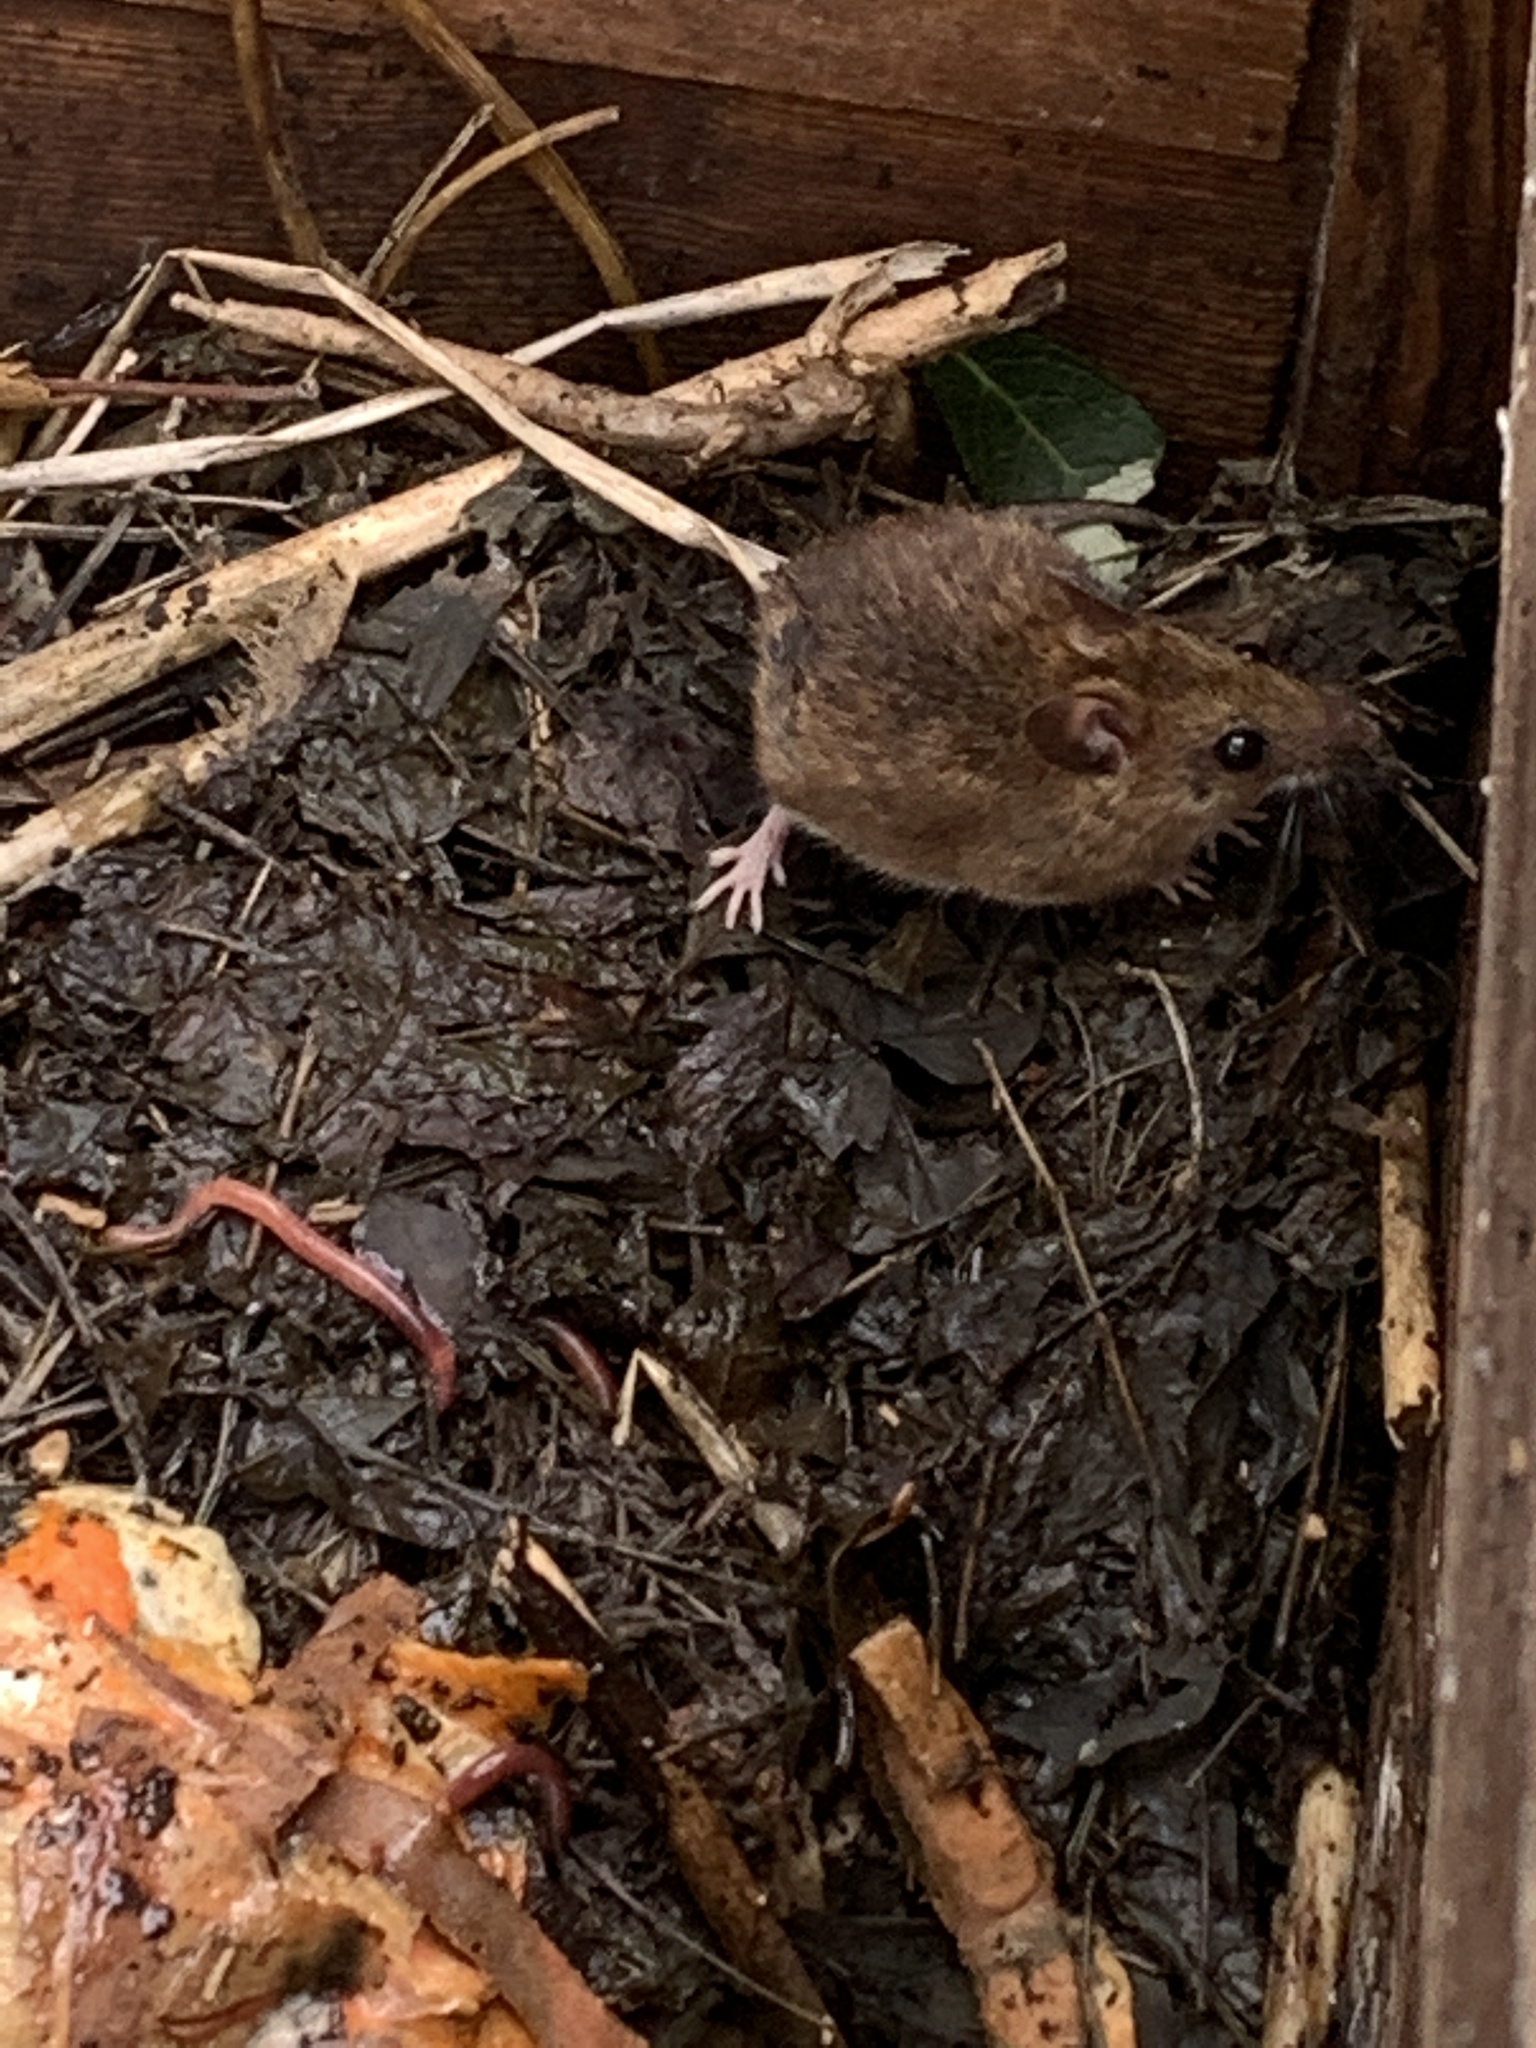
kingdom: Animalia
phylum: Chordata
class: Mammalia
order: Rodentia
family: Muridae
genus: Apodemus
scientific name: Apodemus sylvaticus
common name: Wood mouse
